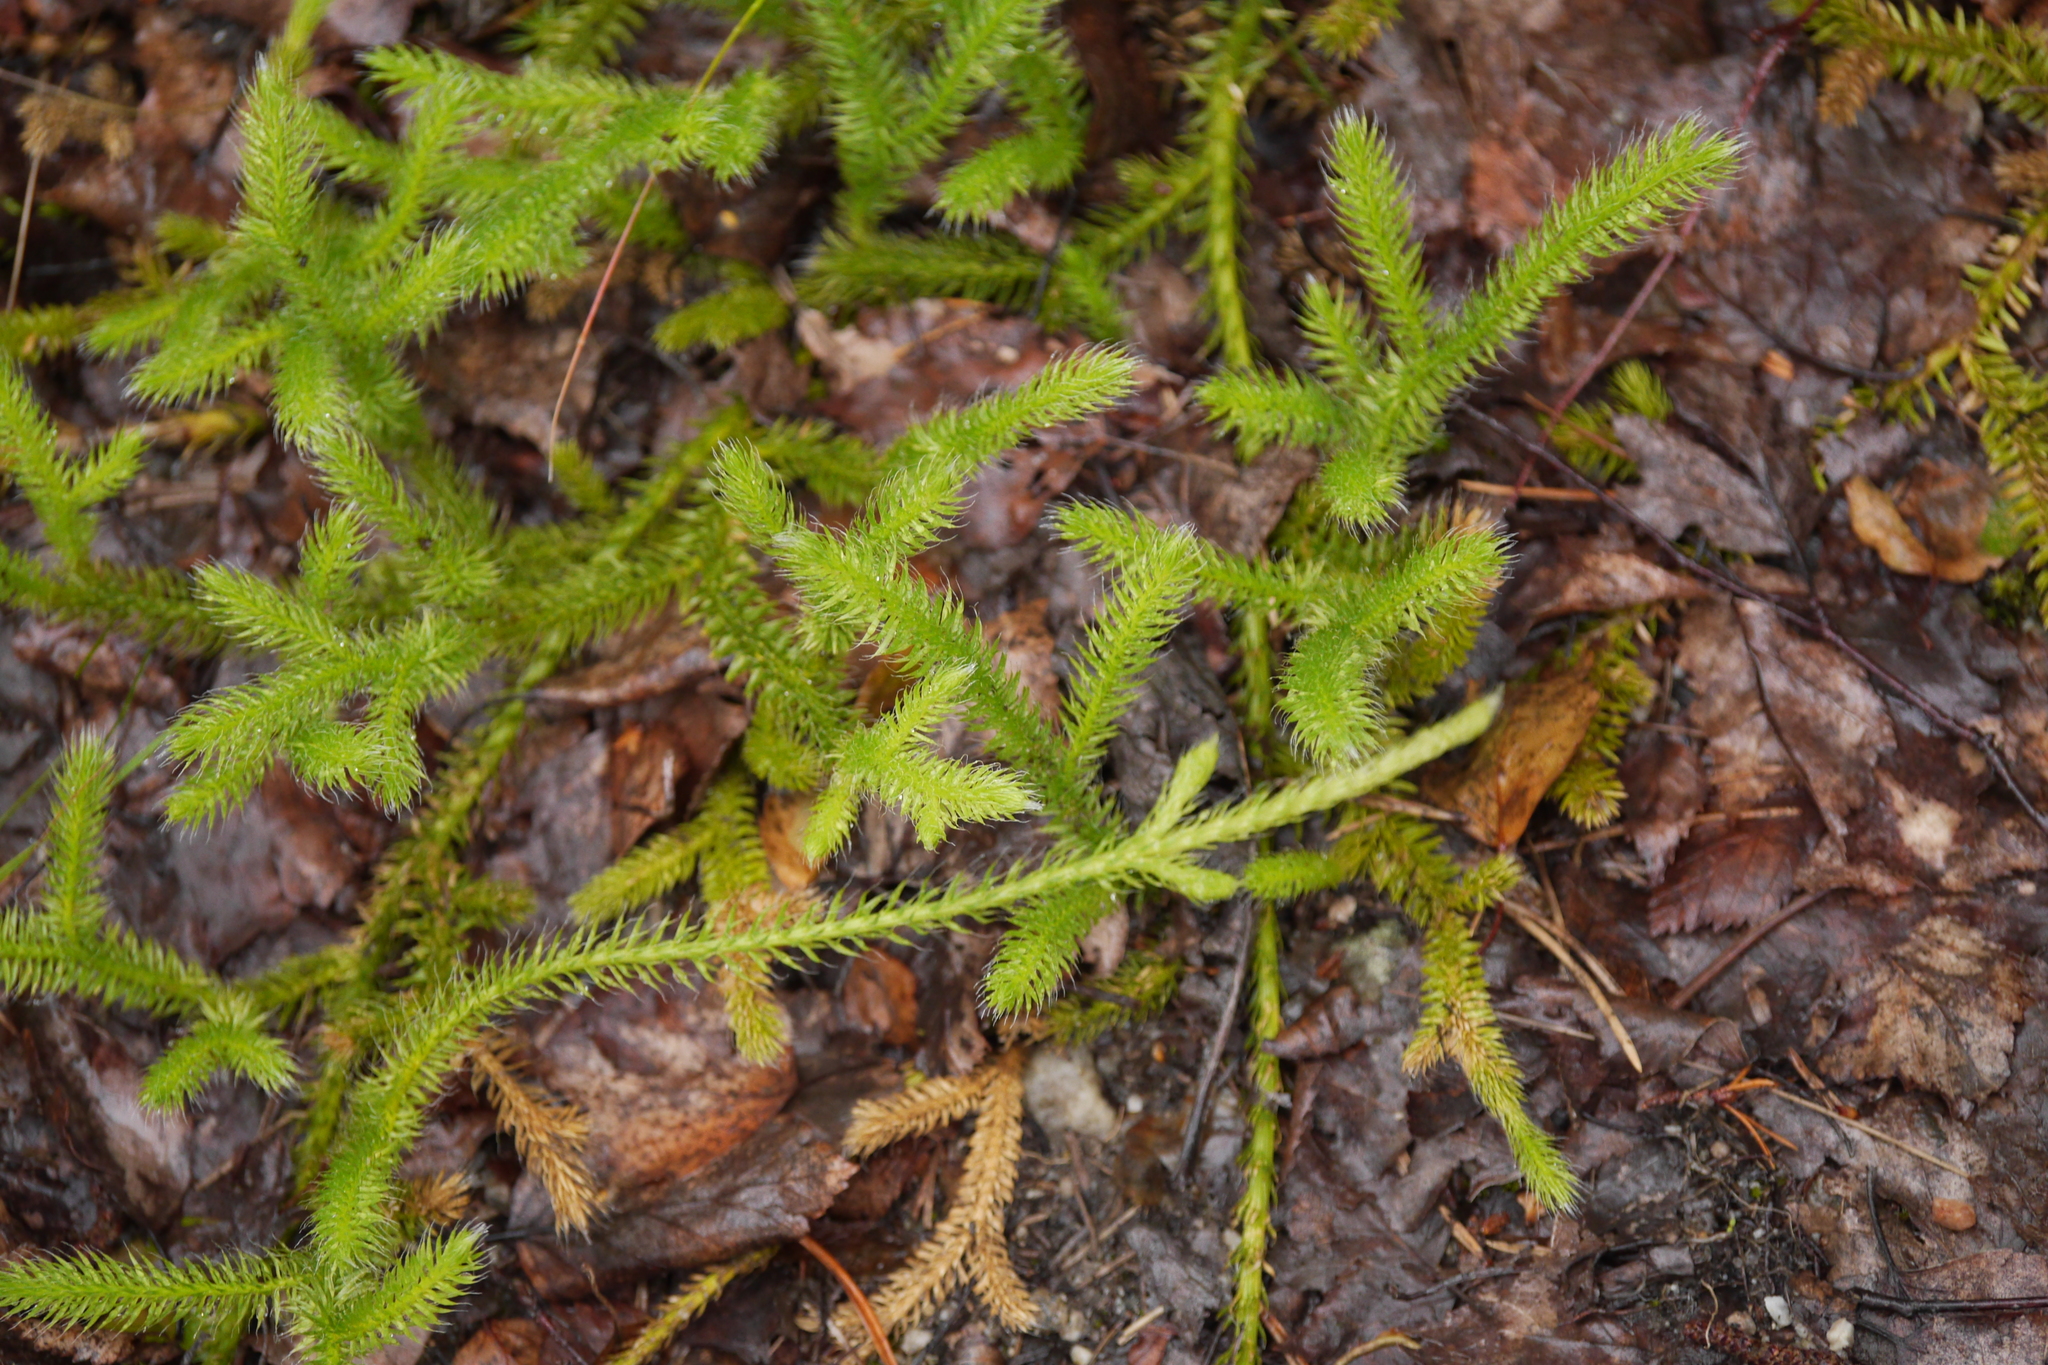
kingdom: Plantae
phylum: Tracheophyta
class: Lycopodiopsida
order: Lycopodiales
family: Lycopodiaceae
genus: Lycopodium
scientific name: Lycopodium clavatum
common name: Stag's-horn clubmoss
